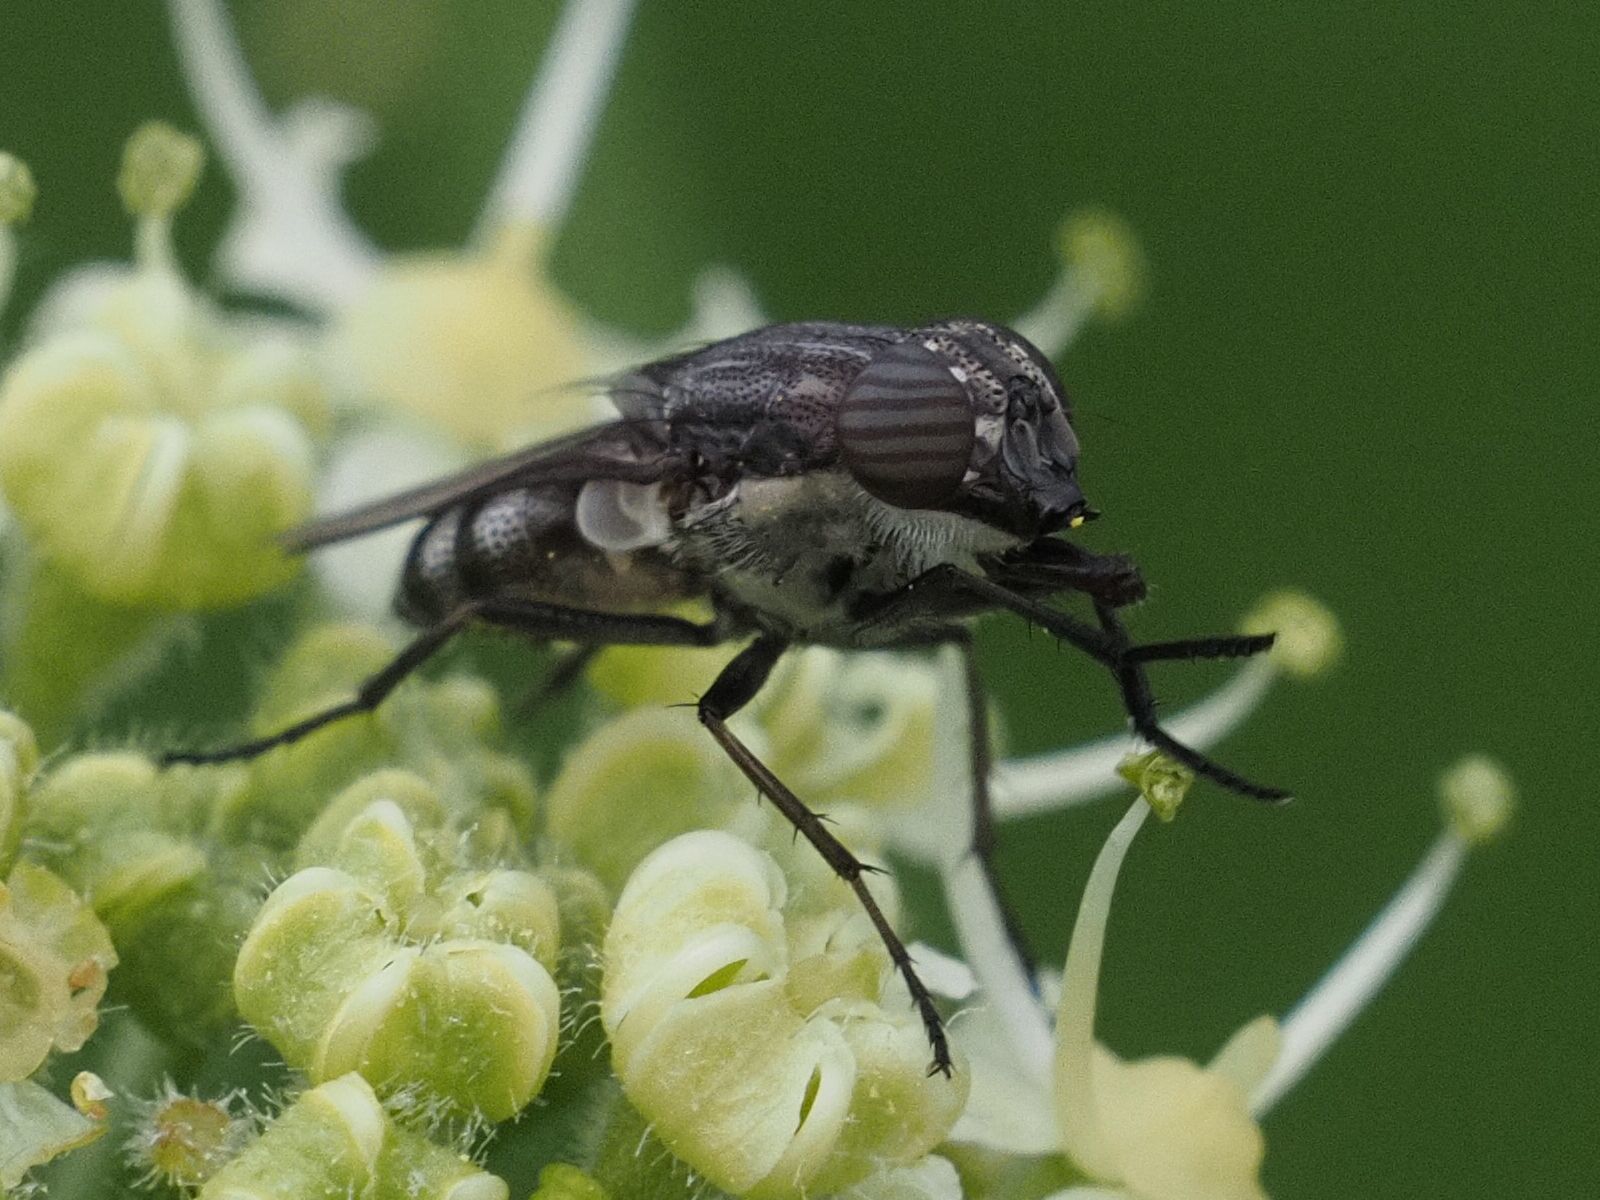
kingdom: Animalia
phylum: Arthropoda
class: Insecta
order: Diptera
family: Calliphoridae
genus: Stomorhina
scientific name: Stomorhina lunata
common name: Locust blowfly
